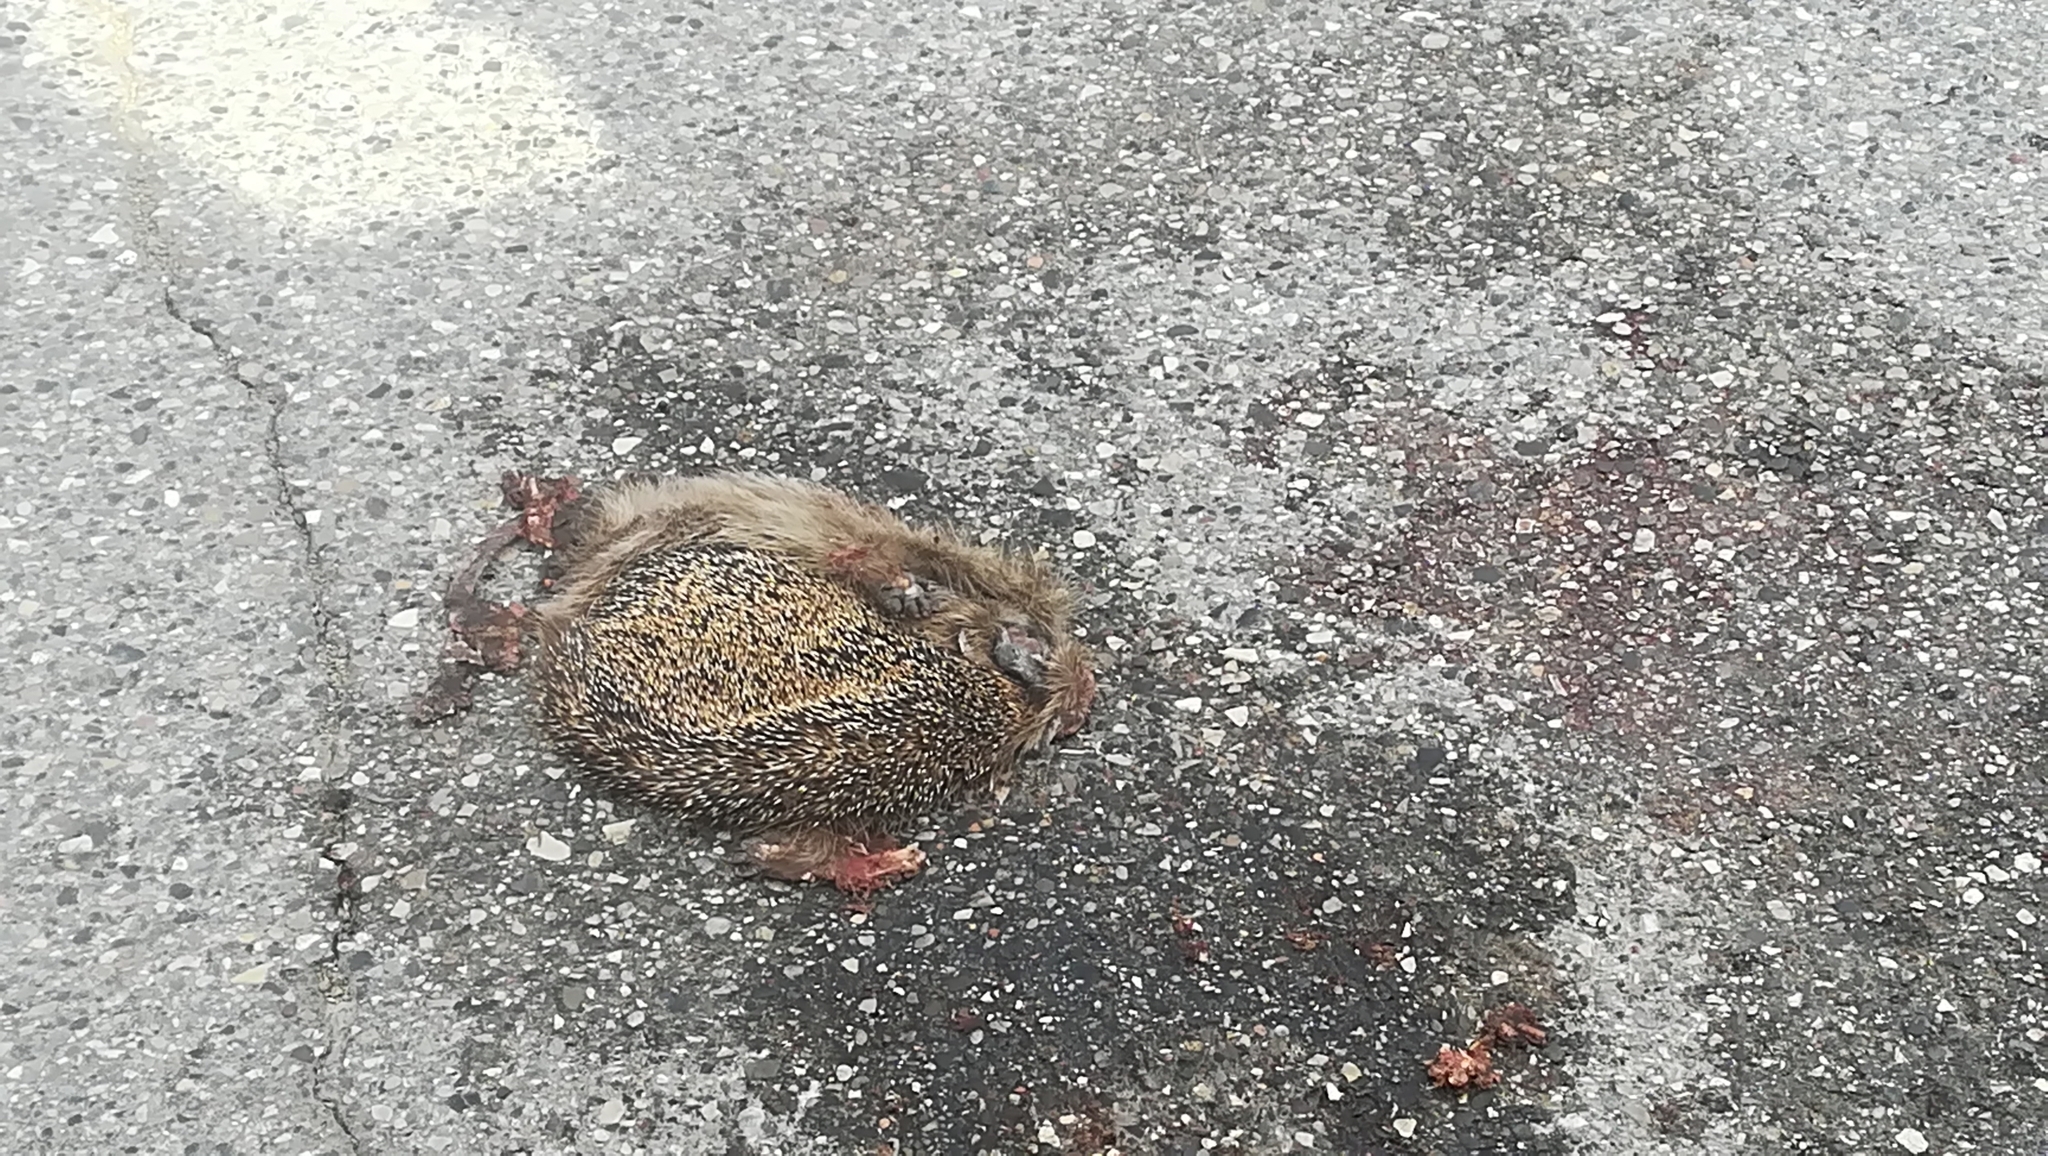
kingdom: Animalia
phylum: Chordata
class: Mammalia
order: Erinaceomorpha
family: Erinaceidae
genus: Erinaceus
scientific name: Erinaceus europaeus
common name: West european hedgehog
